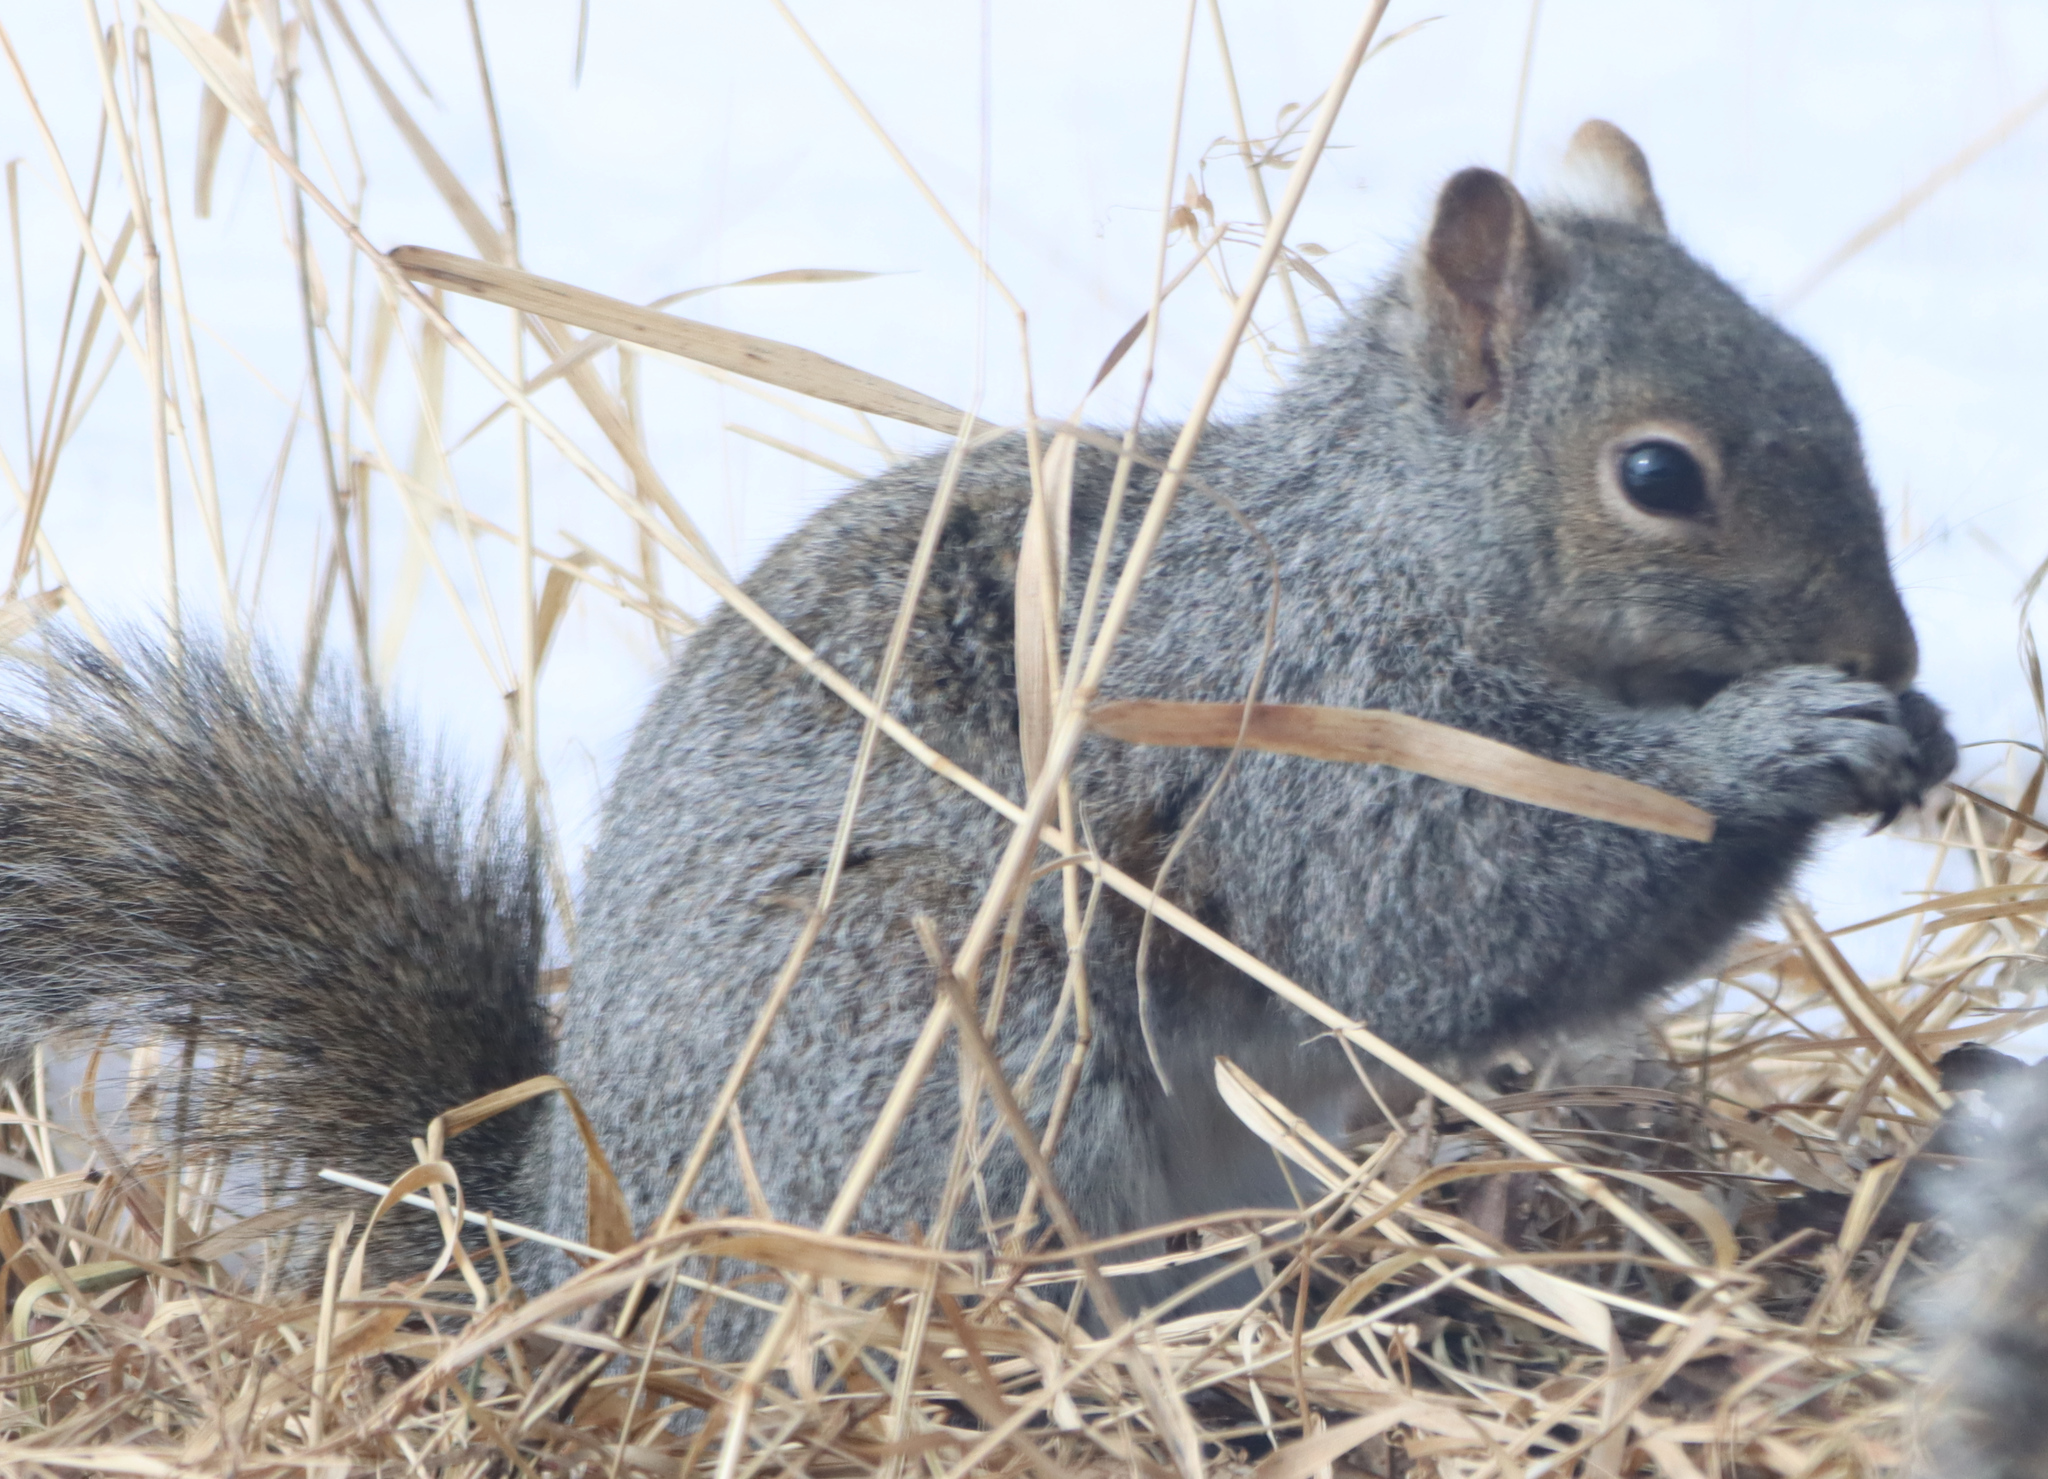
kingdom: Animalia
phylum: Chordata
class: Mammalia
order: Rodentia
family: Sciuridae
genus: Sciurus
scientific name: Sciurus carolinensis
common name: Eastern gray squirrel
